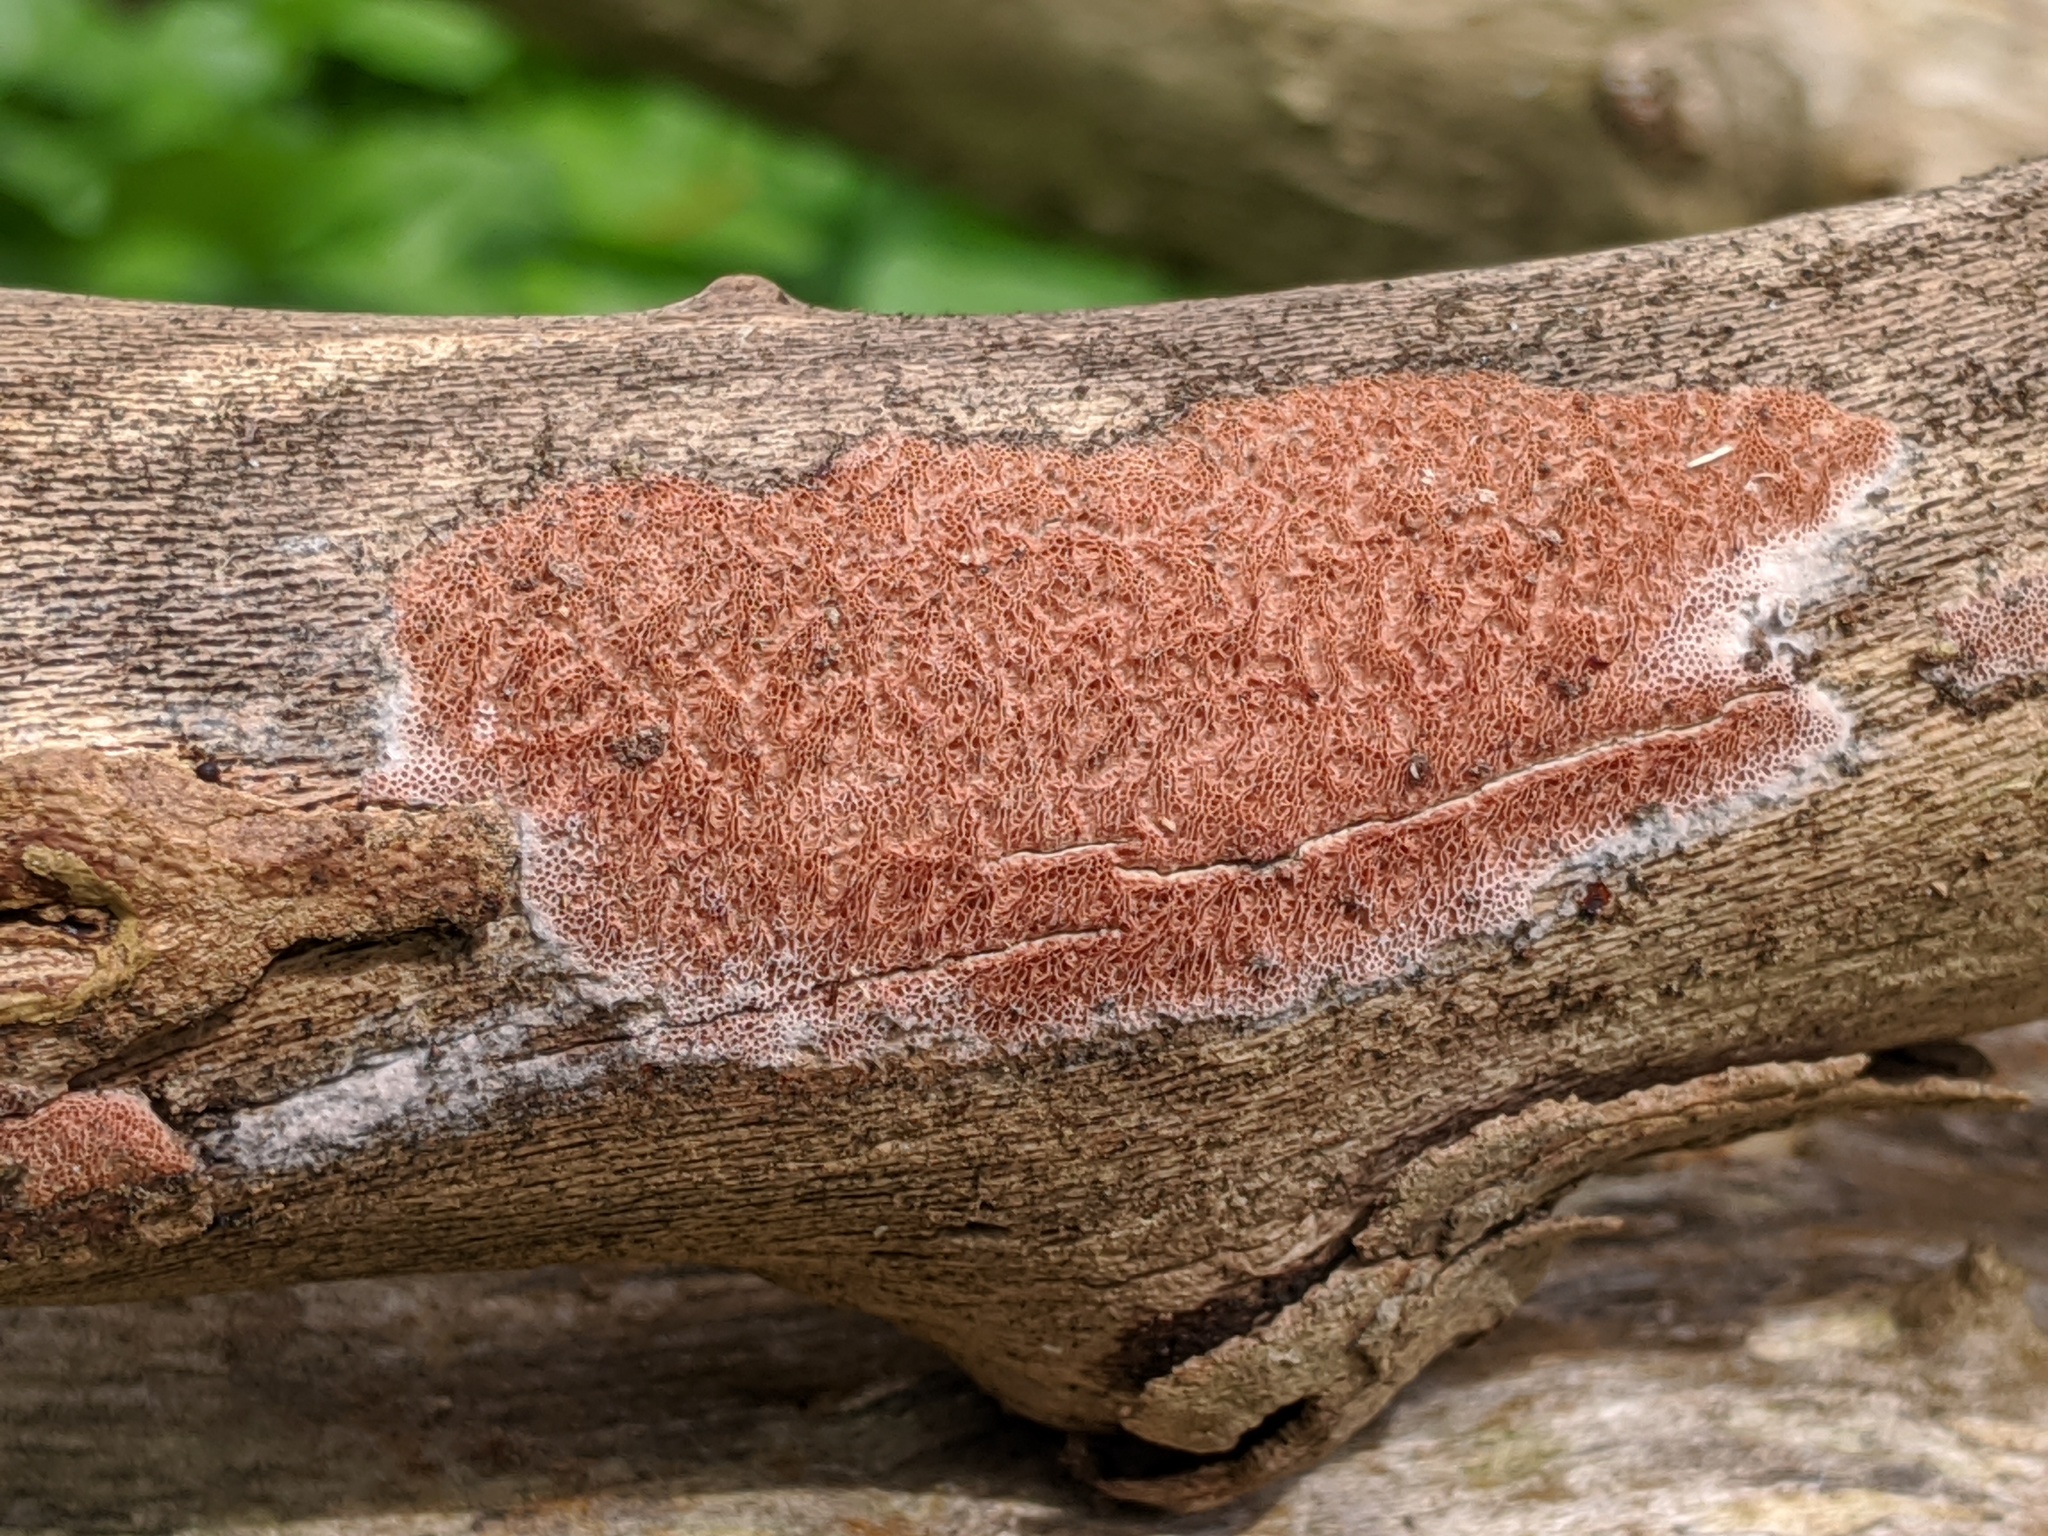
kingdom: Fungi
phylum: Basidiomycota
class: Agaricomycetes
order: Polyporales
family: Irpicaceae
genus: Ceriporia
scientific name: Ceriporia purpurea
